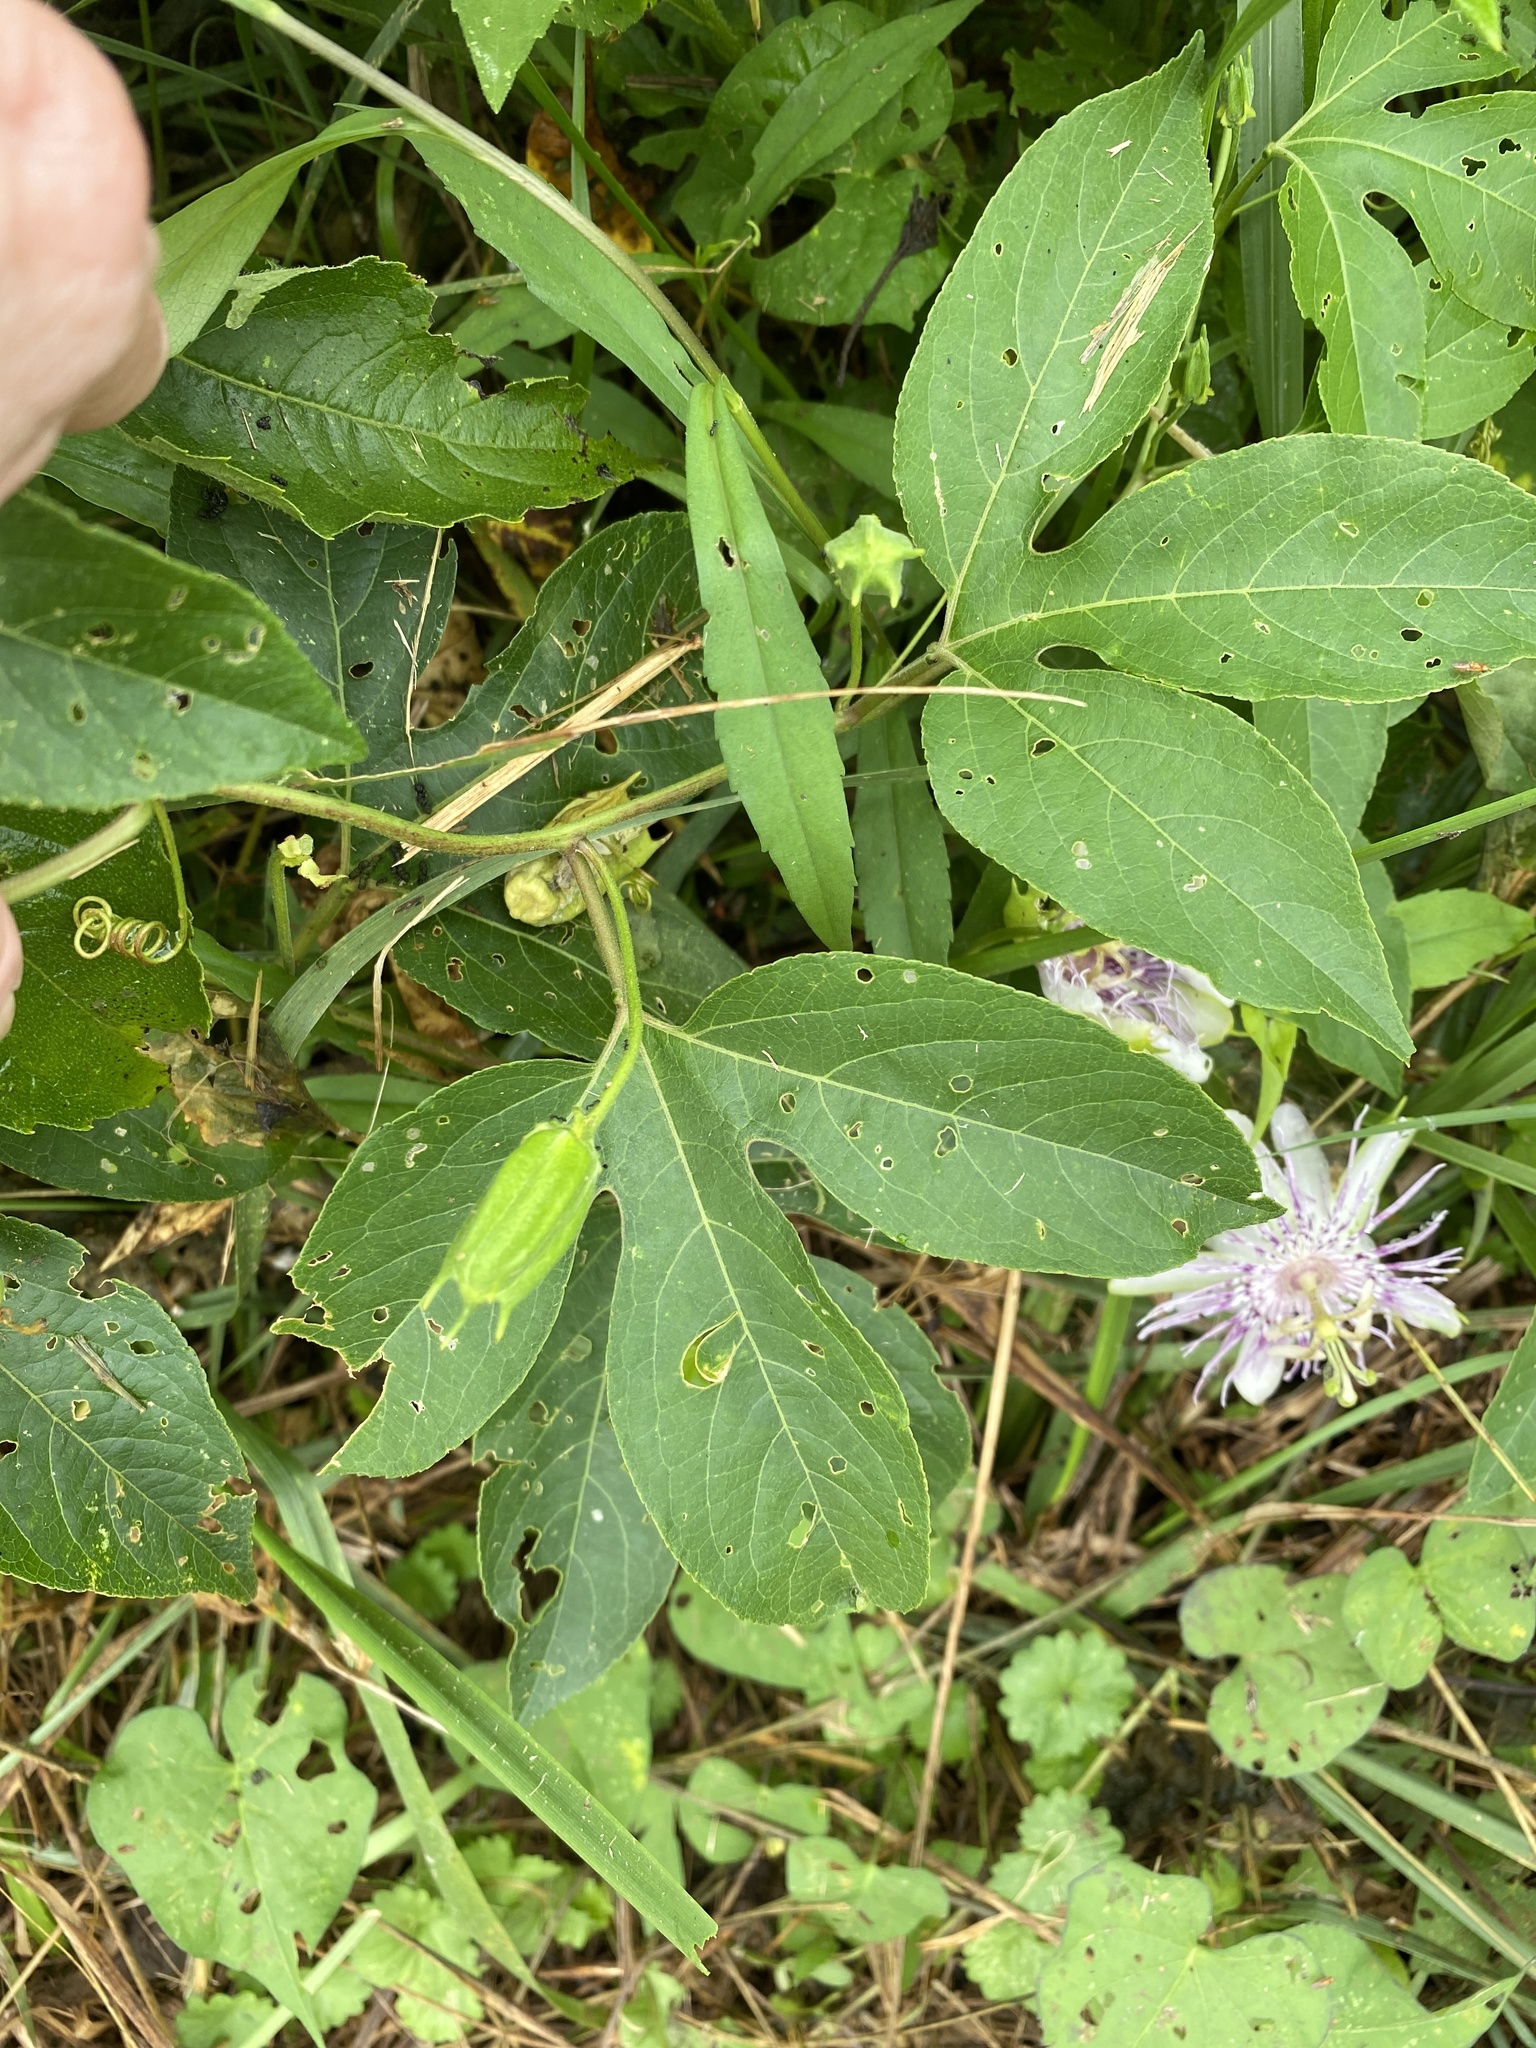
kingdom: Plantae
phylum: Tracheophyta
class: Magnoliopsida
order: Malpighiales
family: Passifloraceae
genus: Passiflora
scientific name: Passiflora incarnata
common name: Apricot-vine
